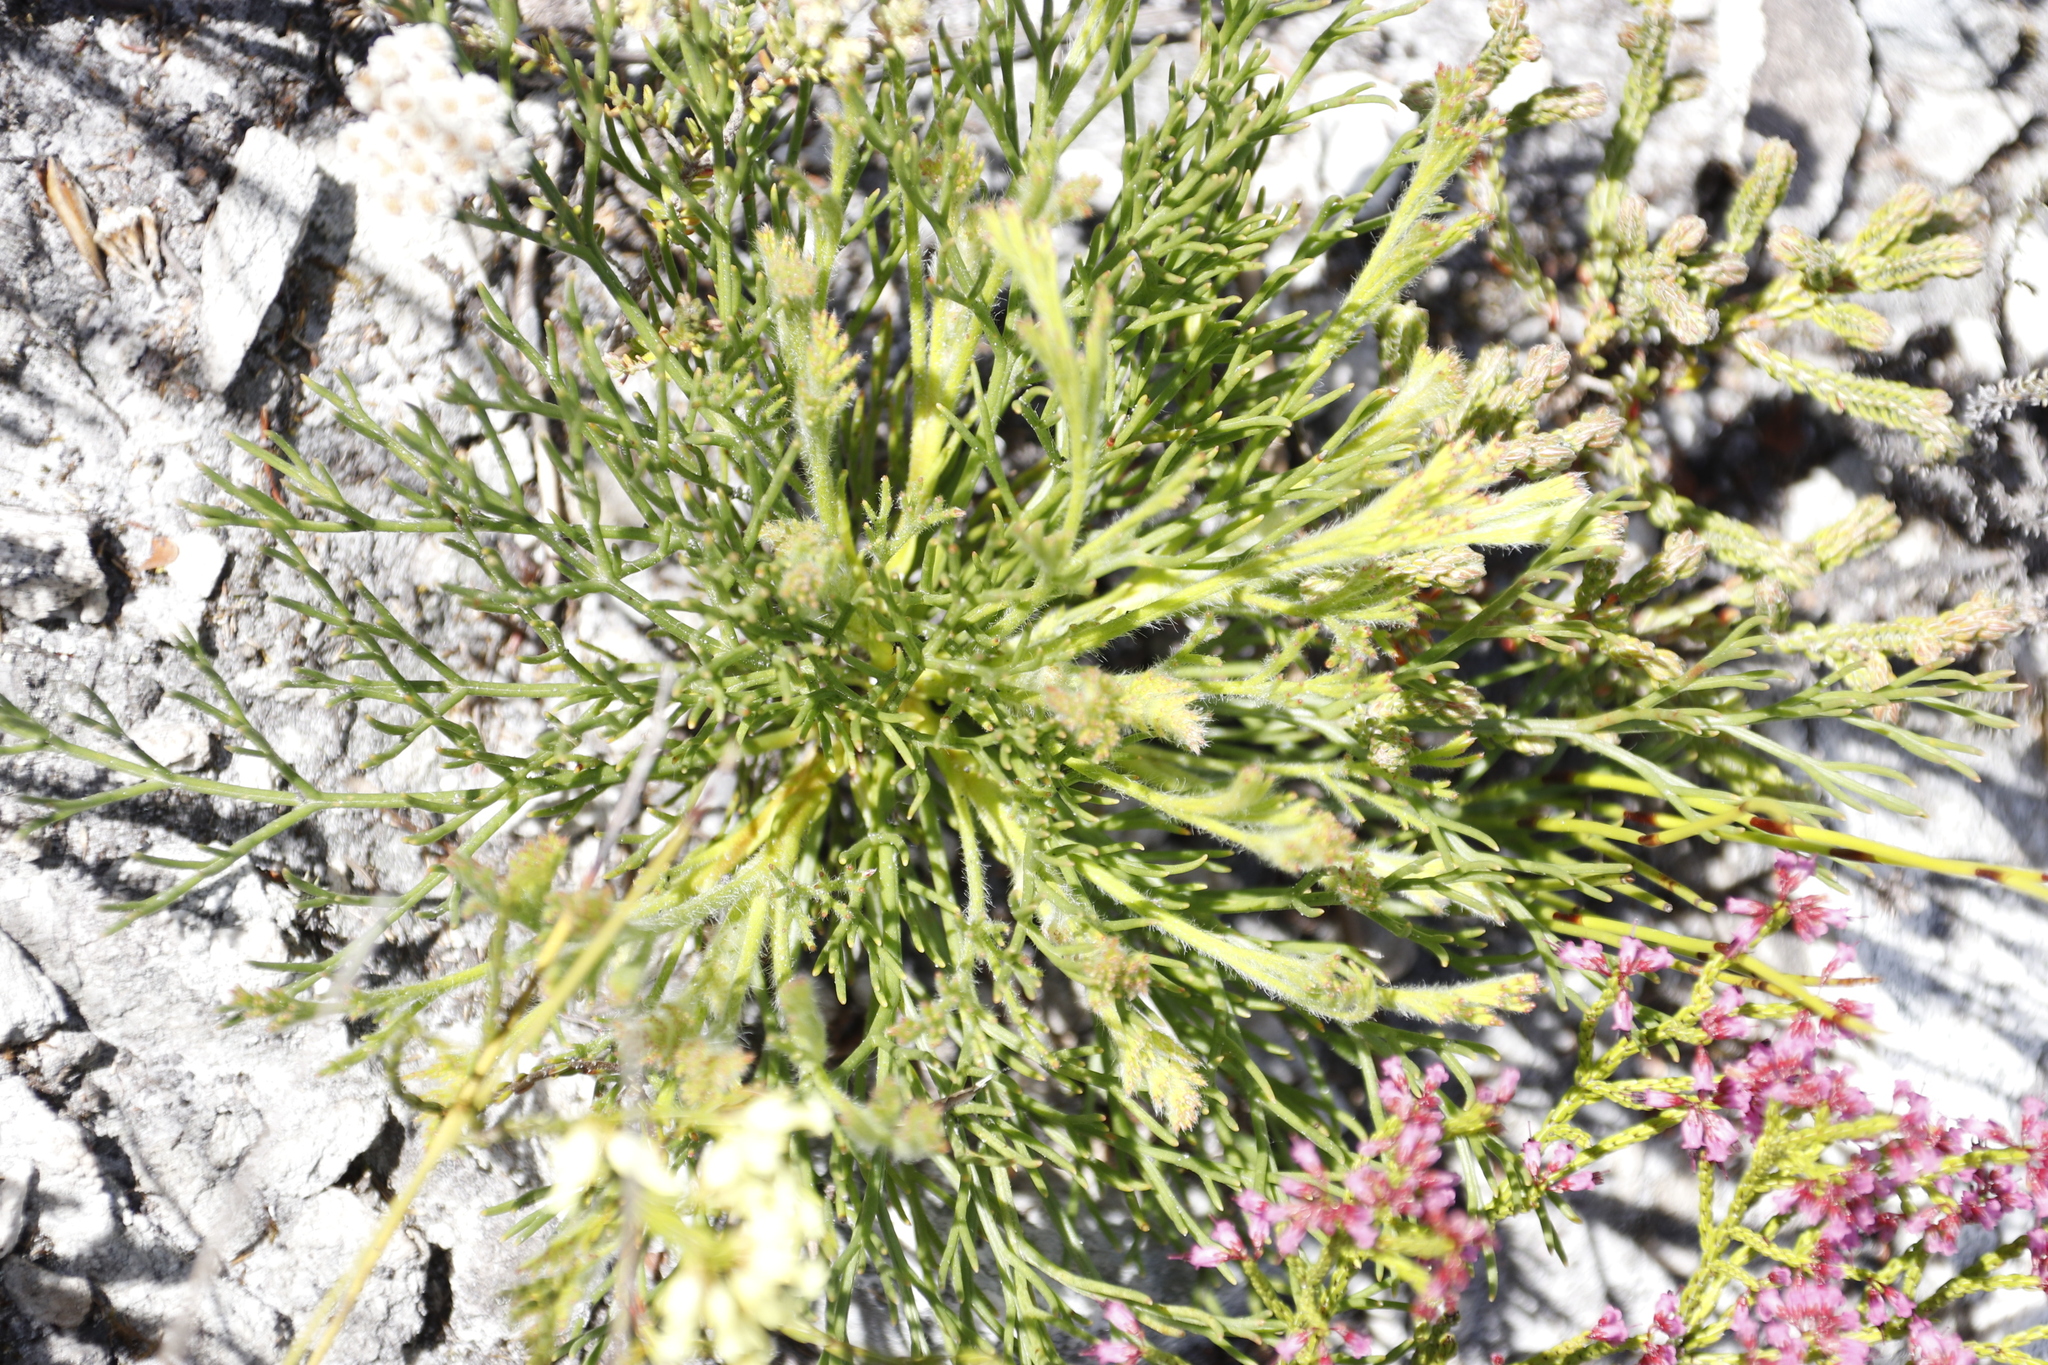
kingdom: Plantae
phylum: Tracheophyta
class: Magnoliopsida
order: Proteales
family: Proteaceae
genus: Serruria
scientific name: Serruria elongata
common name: Long-stalk spiderhead
